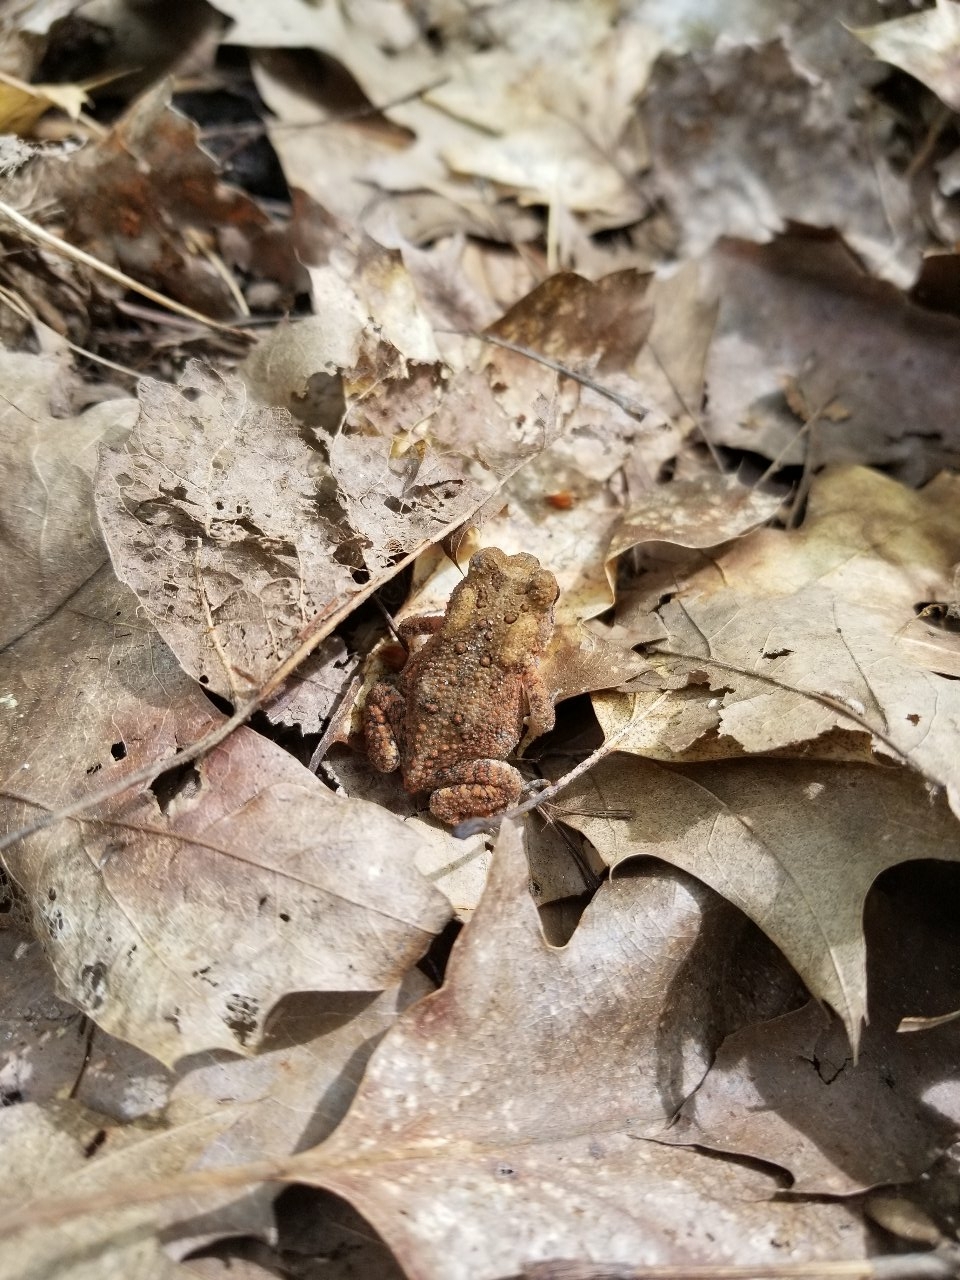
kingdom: Animalia
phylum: Chordata
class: Amphibia
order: Anura
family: Bufonidae
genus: Anaxyrus
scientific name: Anaxyrus americanus
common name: American toad
